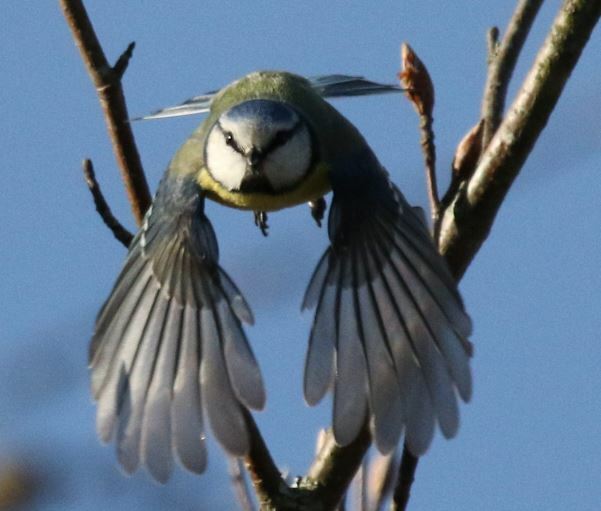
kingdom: Animalia
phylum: Chordata
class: Aves
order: Passeriformes
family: Paridae
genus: Cyanistes
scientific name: Cyanistes caeruleus
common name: Eurasian blue tit
